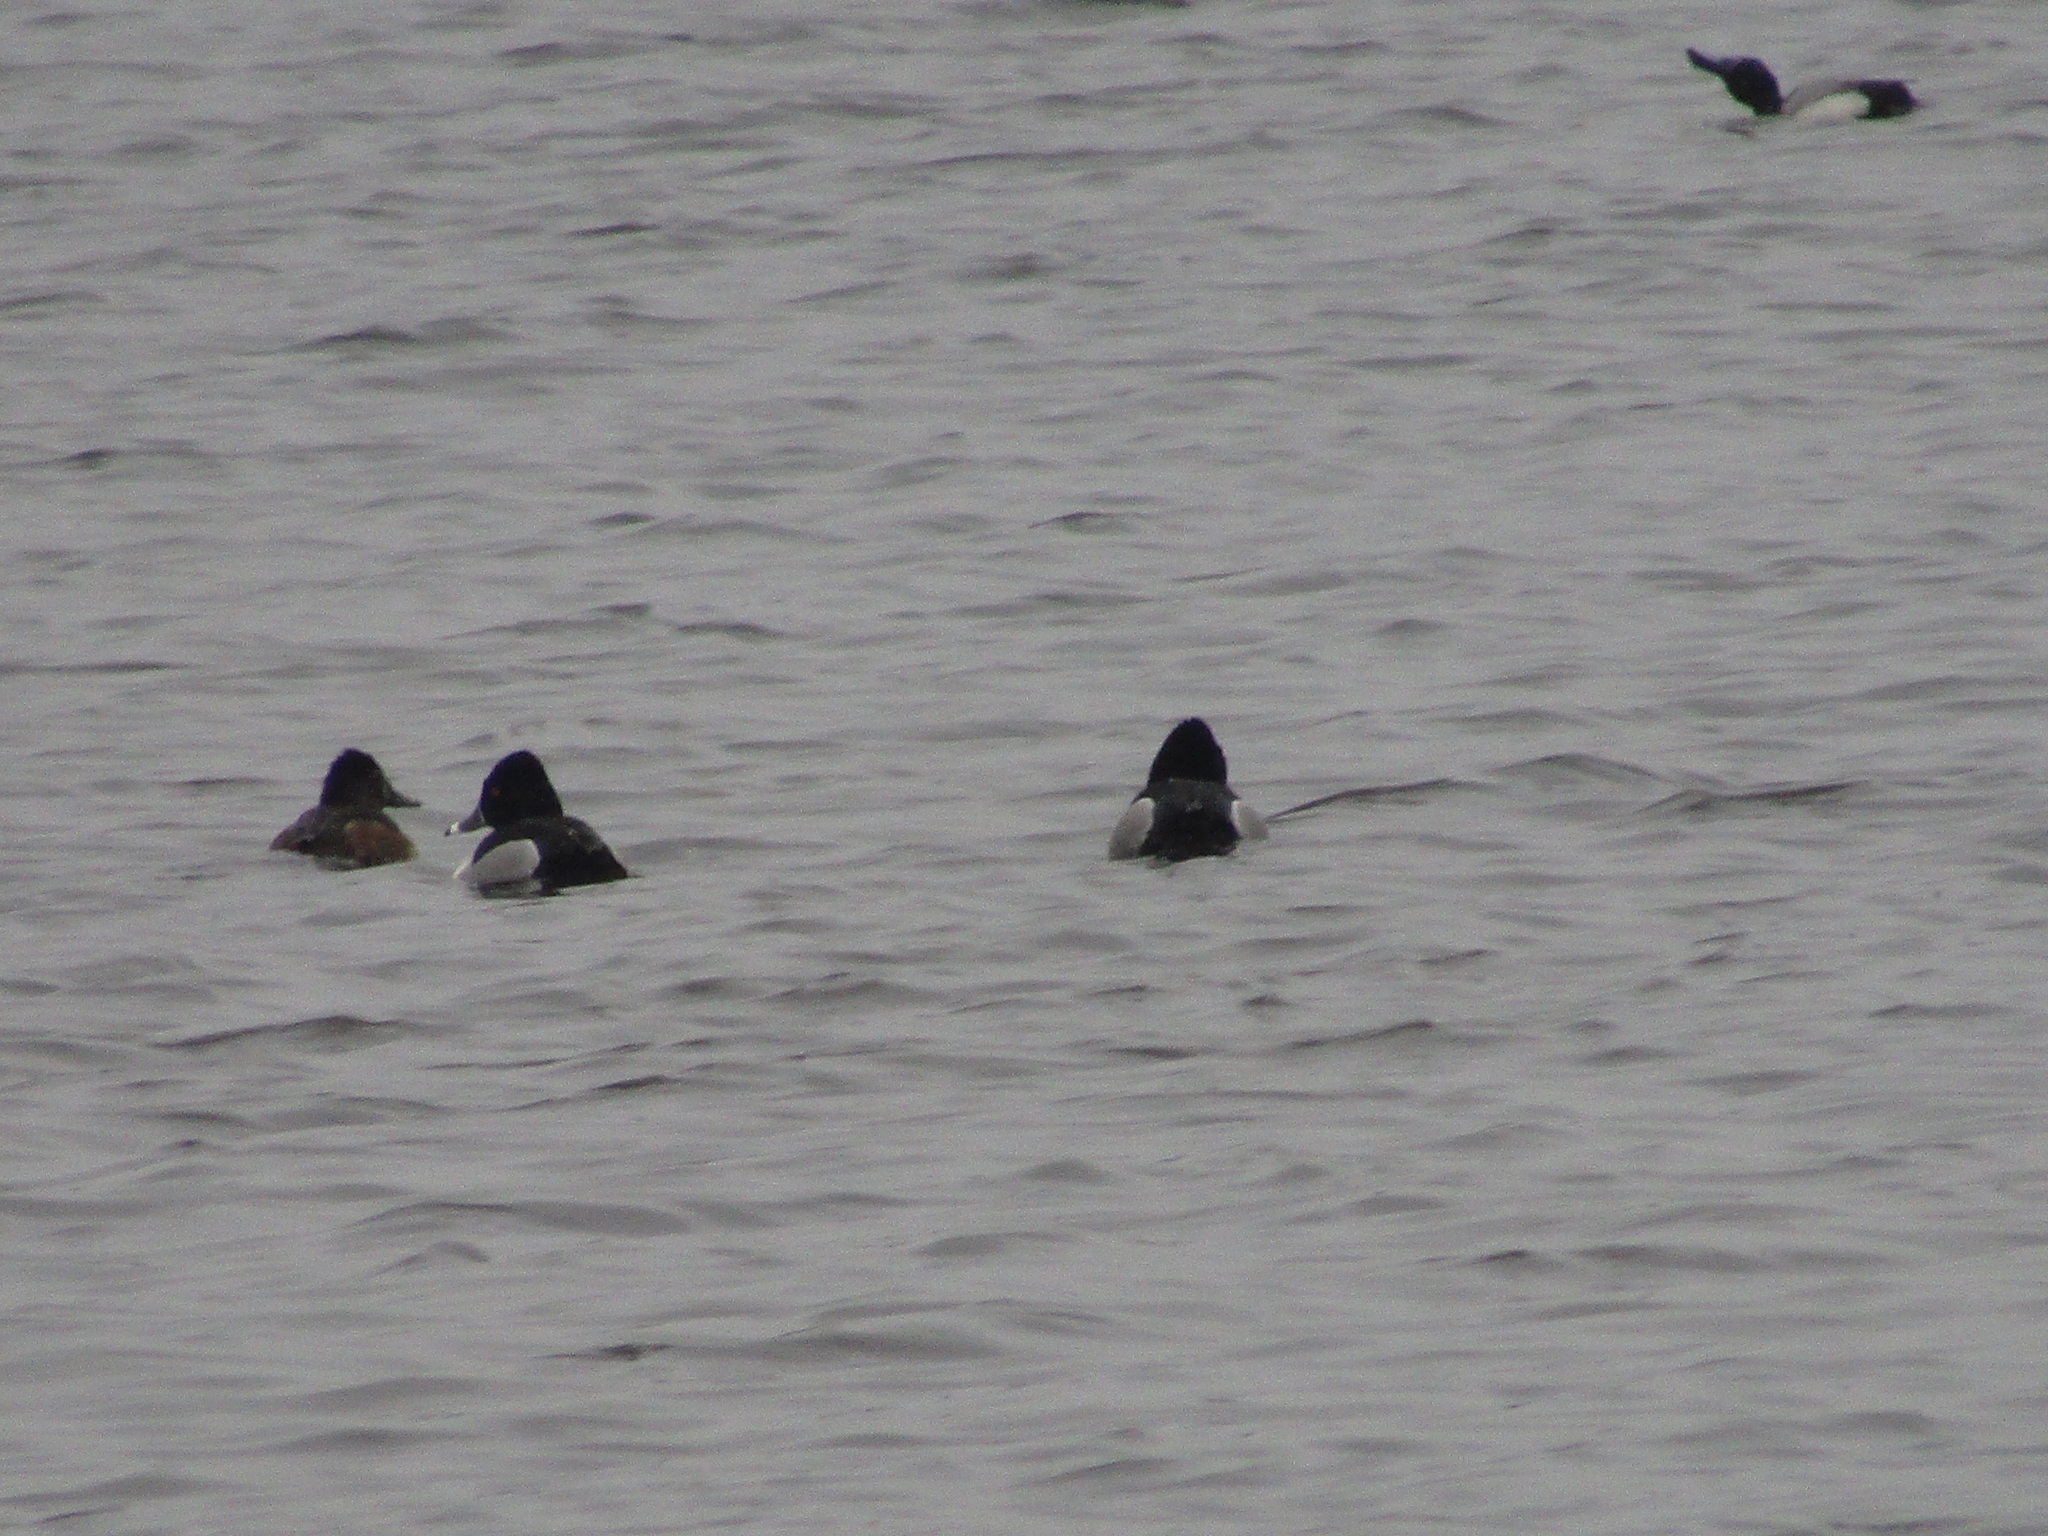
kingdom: Animalia
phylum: Chordata
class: Aves
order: Anseriformes
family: Anatidae
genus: Aythya
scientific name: Aythya collaris
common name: Ring-necked duck
